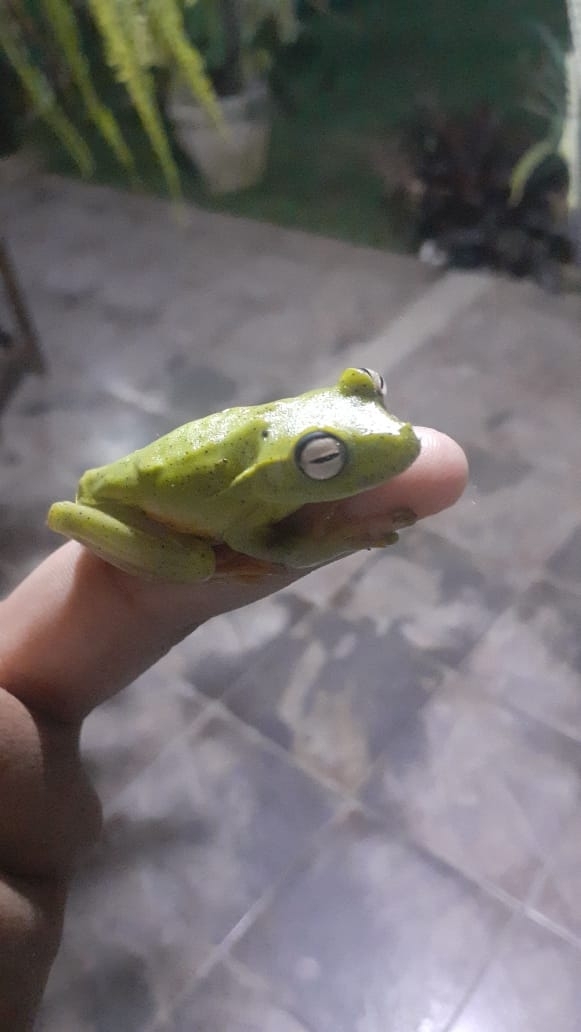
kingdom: Animalia
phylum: Chordata
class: Amphibia
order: Anura
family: Hylidae
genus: Boana
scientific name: Boana albomarginata
